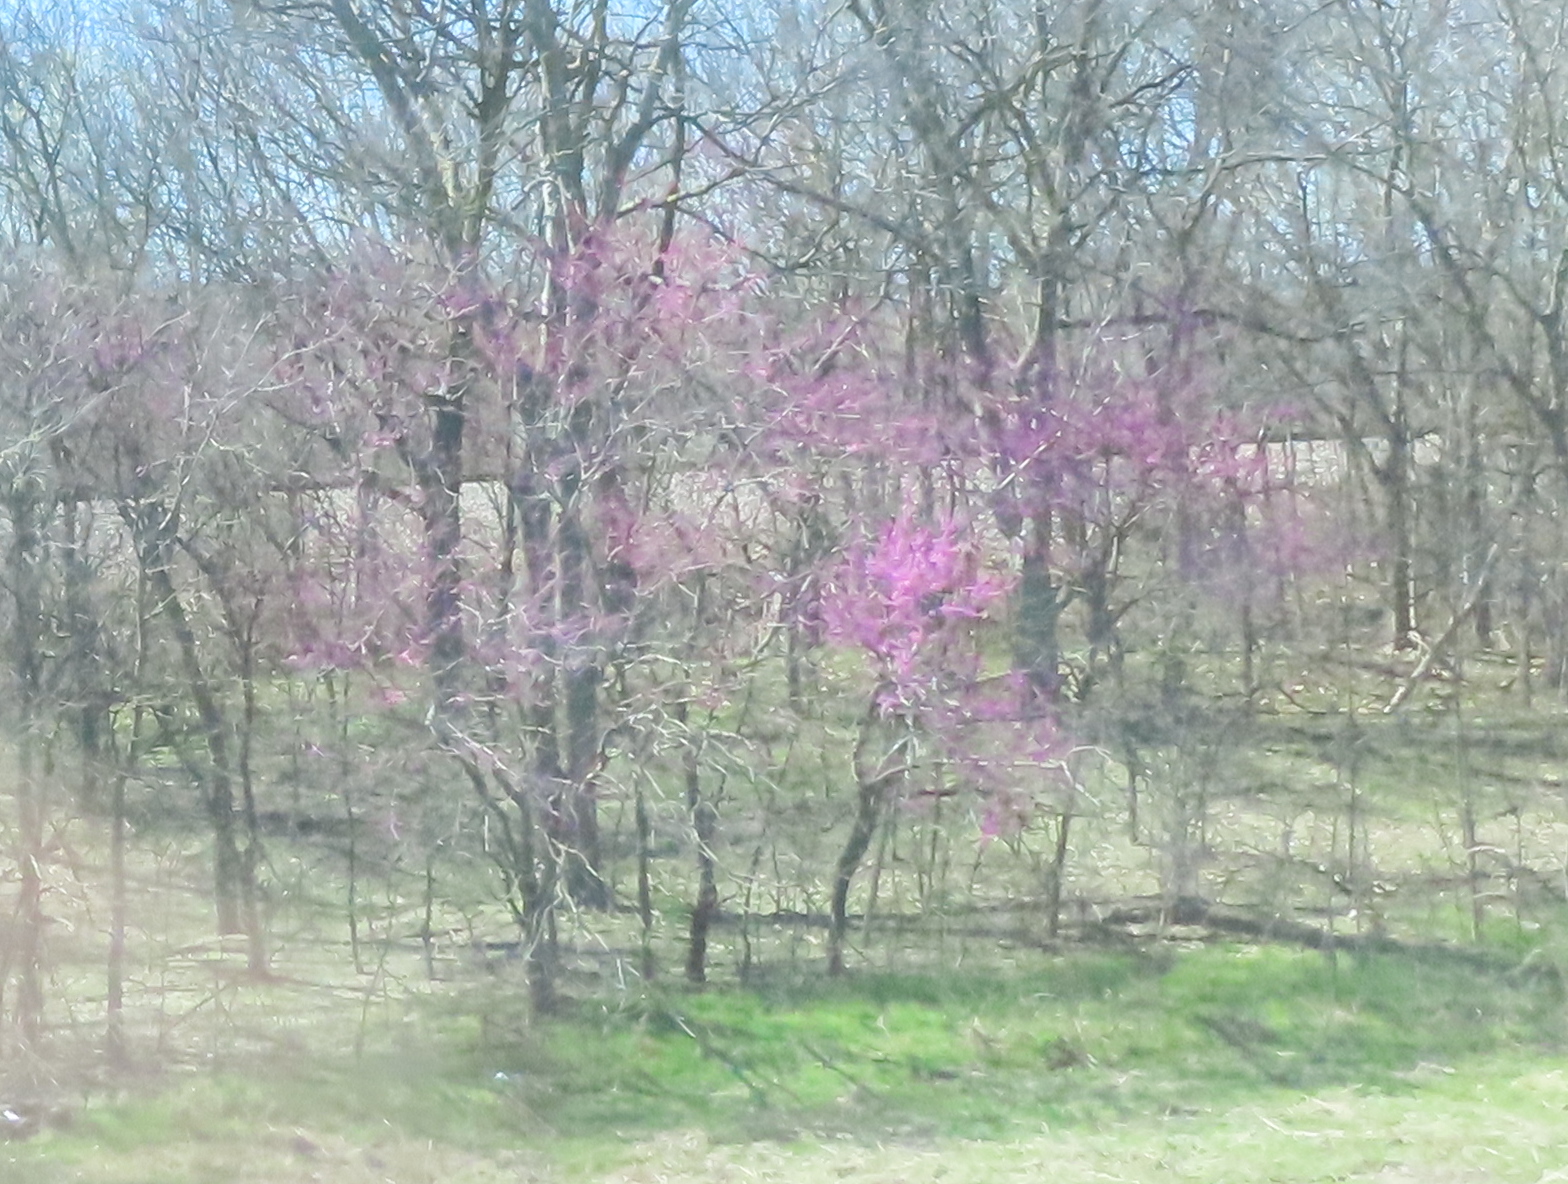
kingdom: Plantae
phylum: Tracheophyta
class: Magnoliopsida
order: Fabales
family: Fabaceae
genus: Cercis
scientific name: Cercis canadensis
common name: Eastern redbud
